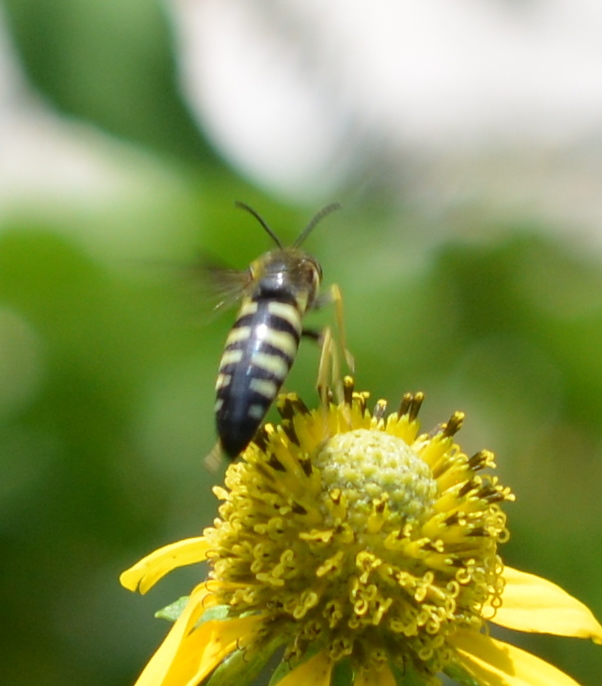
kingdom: Animalia
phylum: Arthropoda
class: Insecta
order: Hymenoptera
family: Crabronidae
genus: Bicyrtes
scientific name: Bicyrtes quadrifasciatus
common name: Four-banded stink bug hunter wasp
